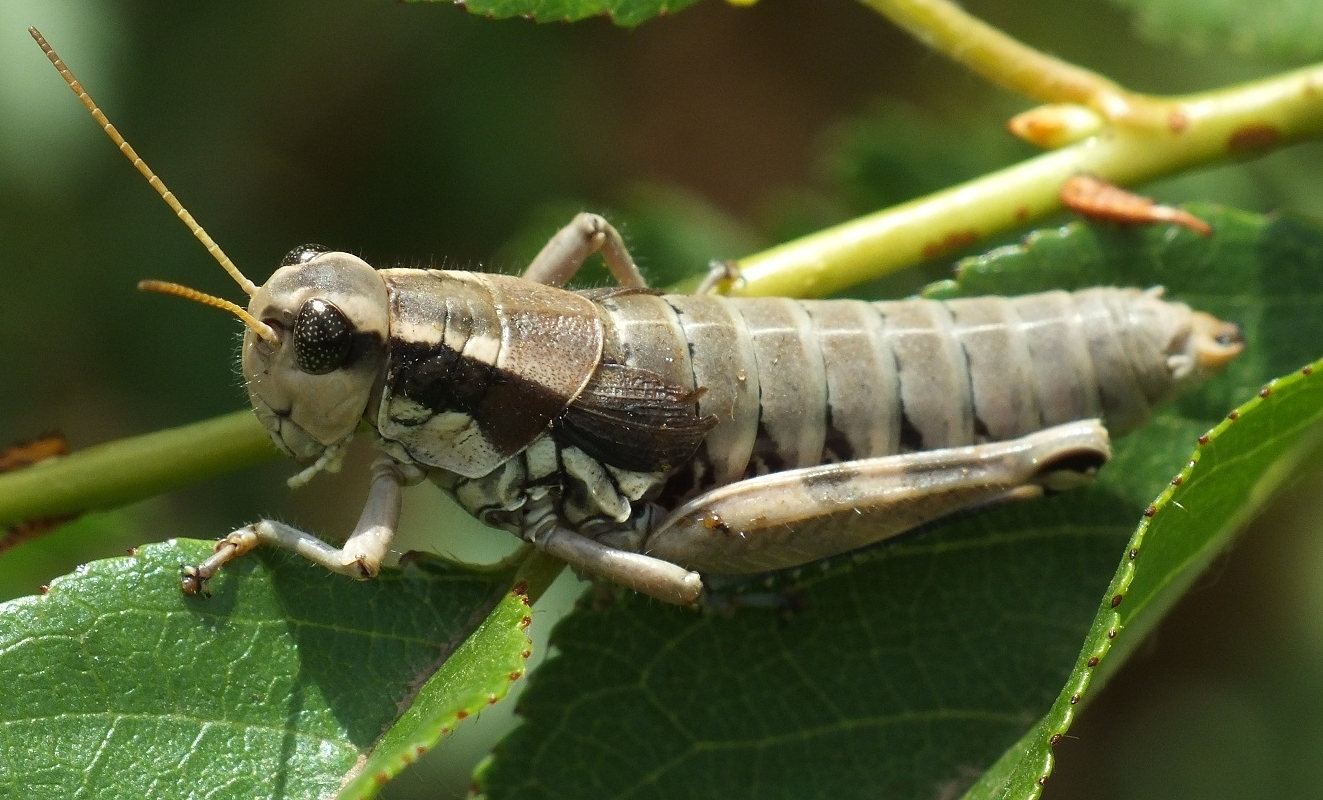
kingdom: Animalia
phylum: Arthropoda
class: Insecta
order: Orthoptera
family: Acrididae
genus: Podisma
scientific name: Podisma pedestris
